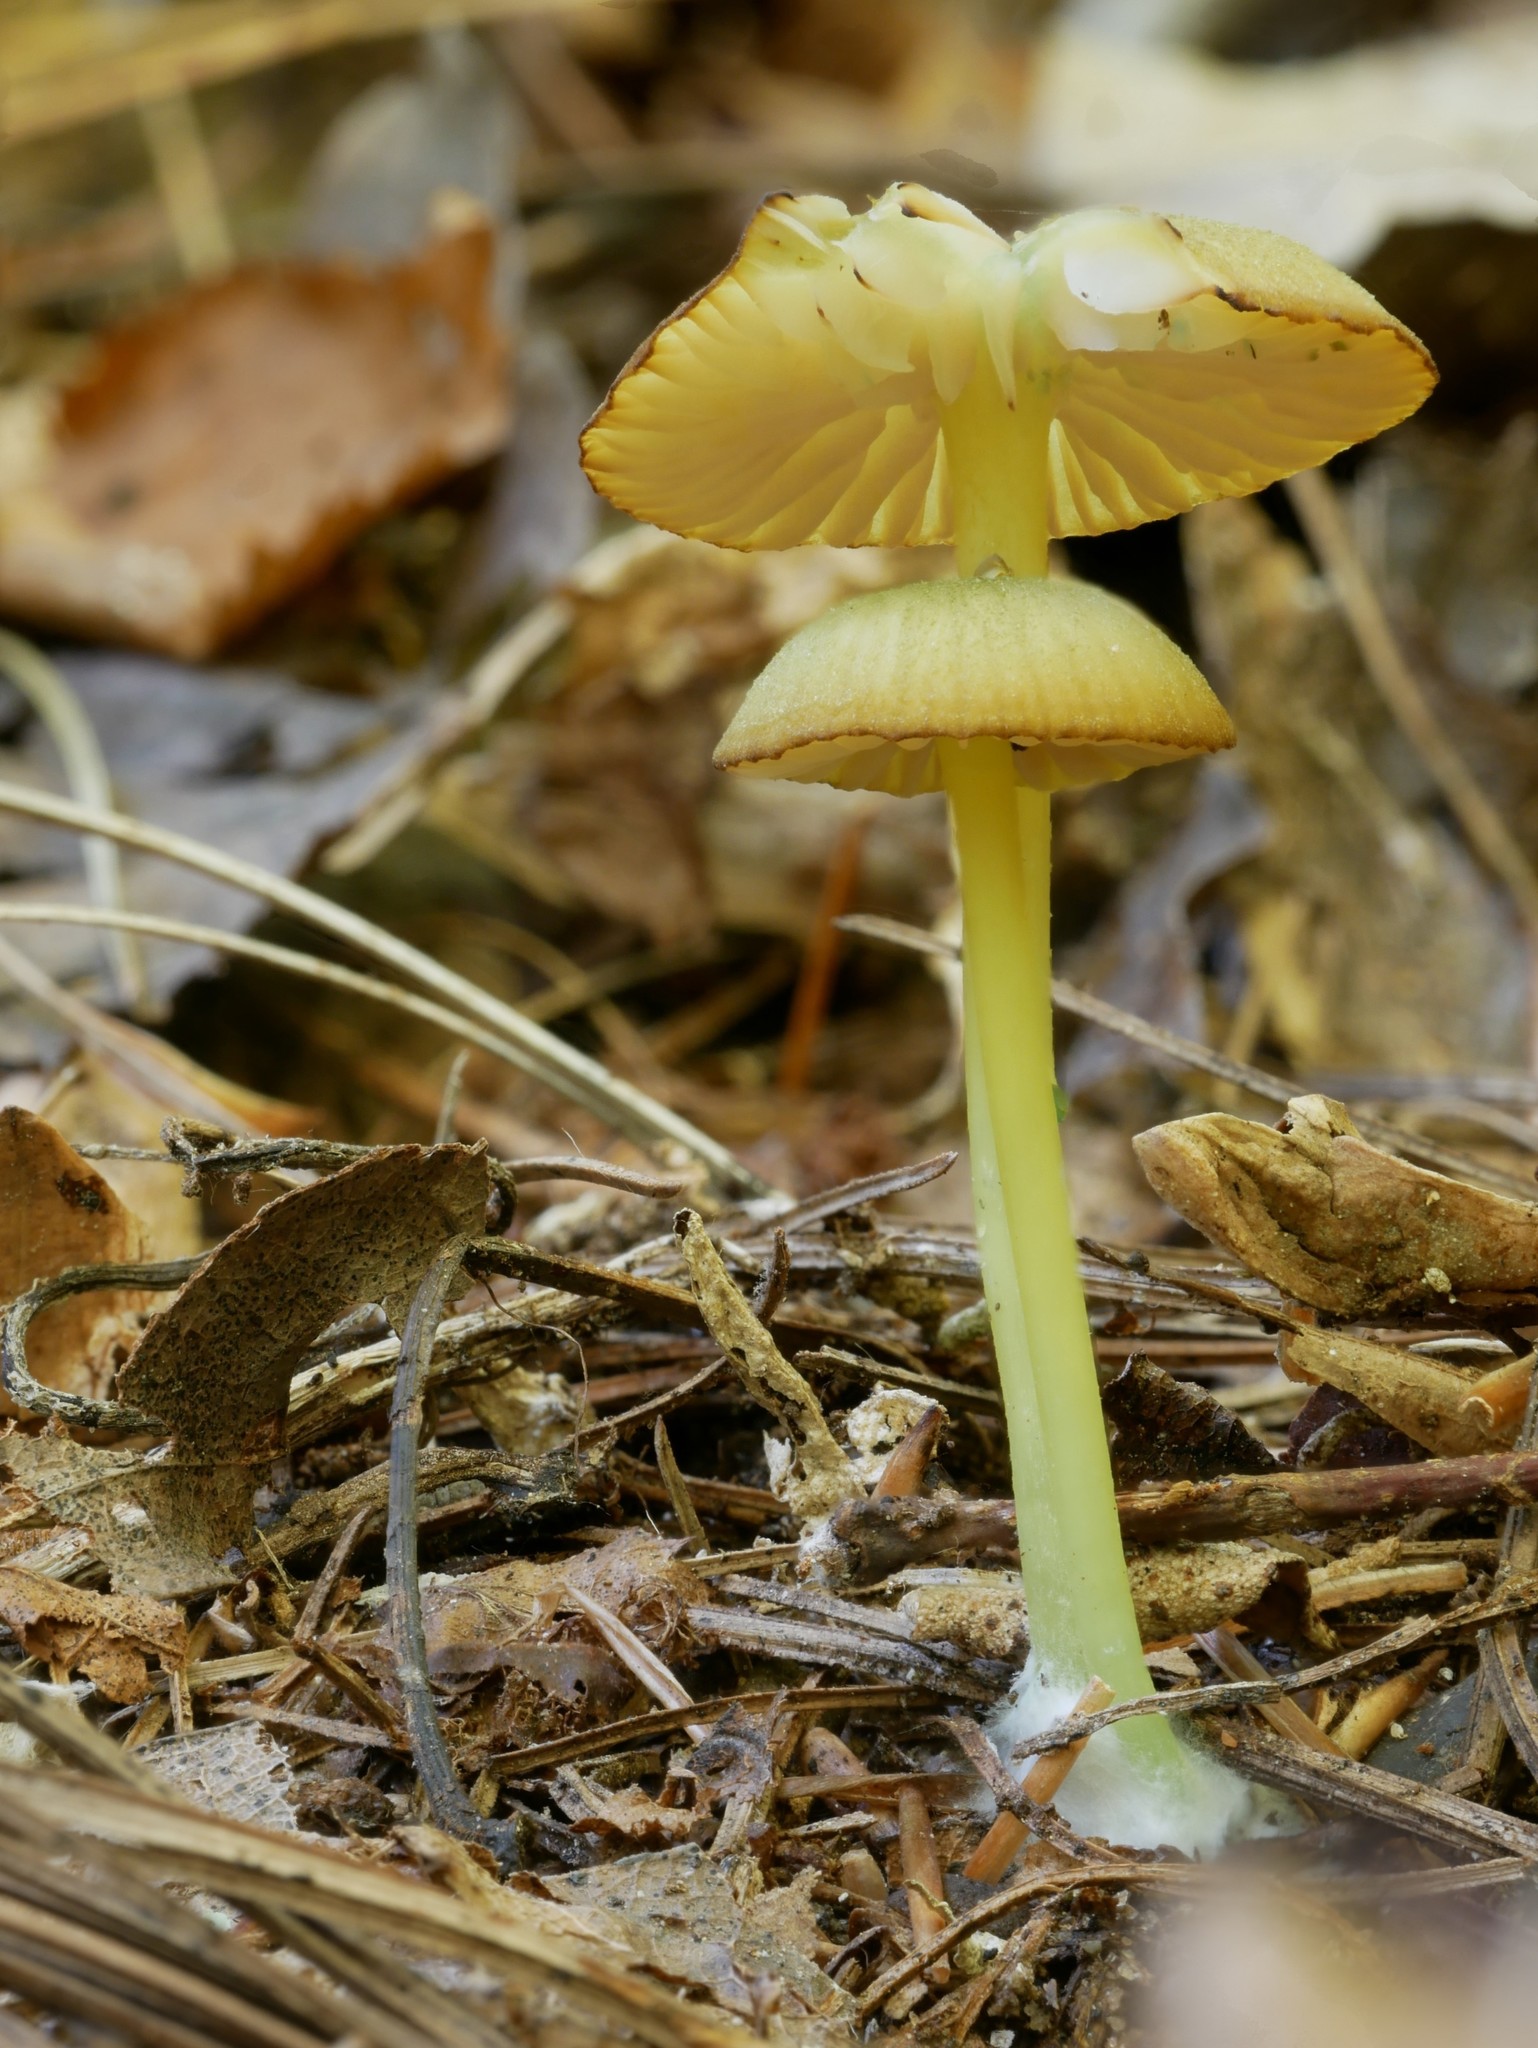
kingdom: Fungi
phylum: Basidiomycota
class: Agaricomycetes
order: Agaricales
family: Entolomataceae
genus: Entoloma
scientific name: Entoloma incanum
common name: Mousepee pinkgill
